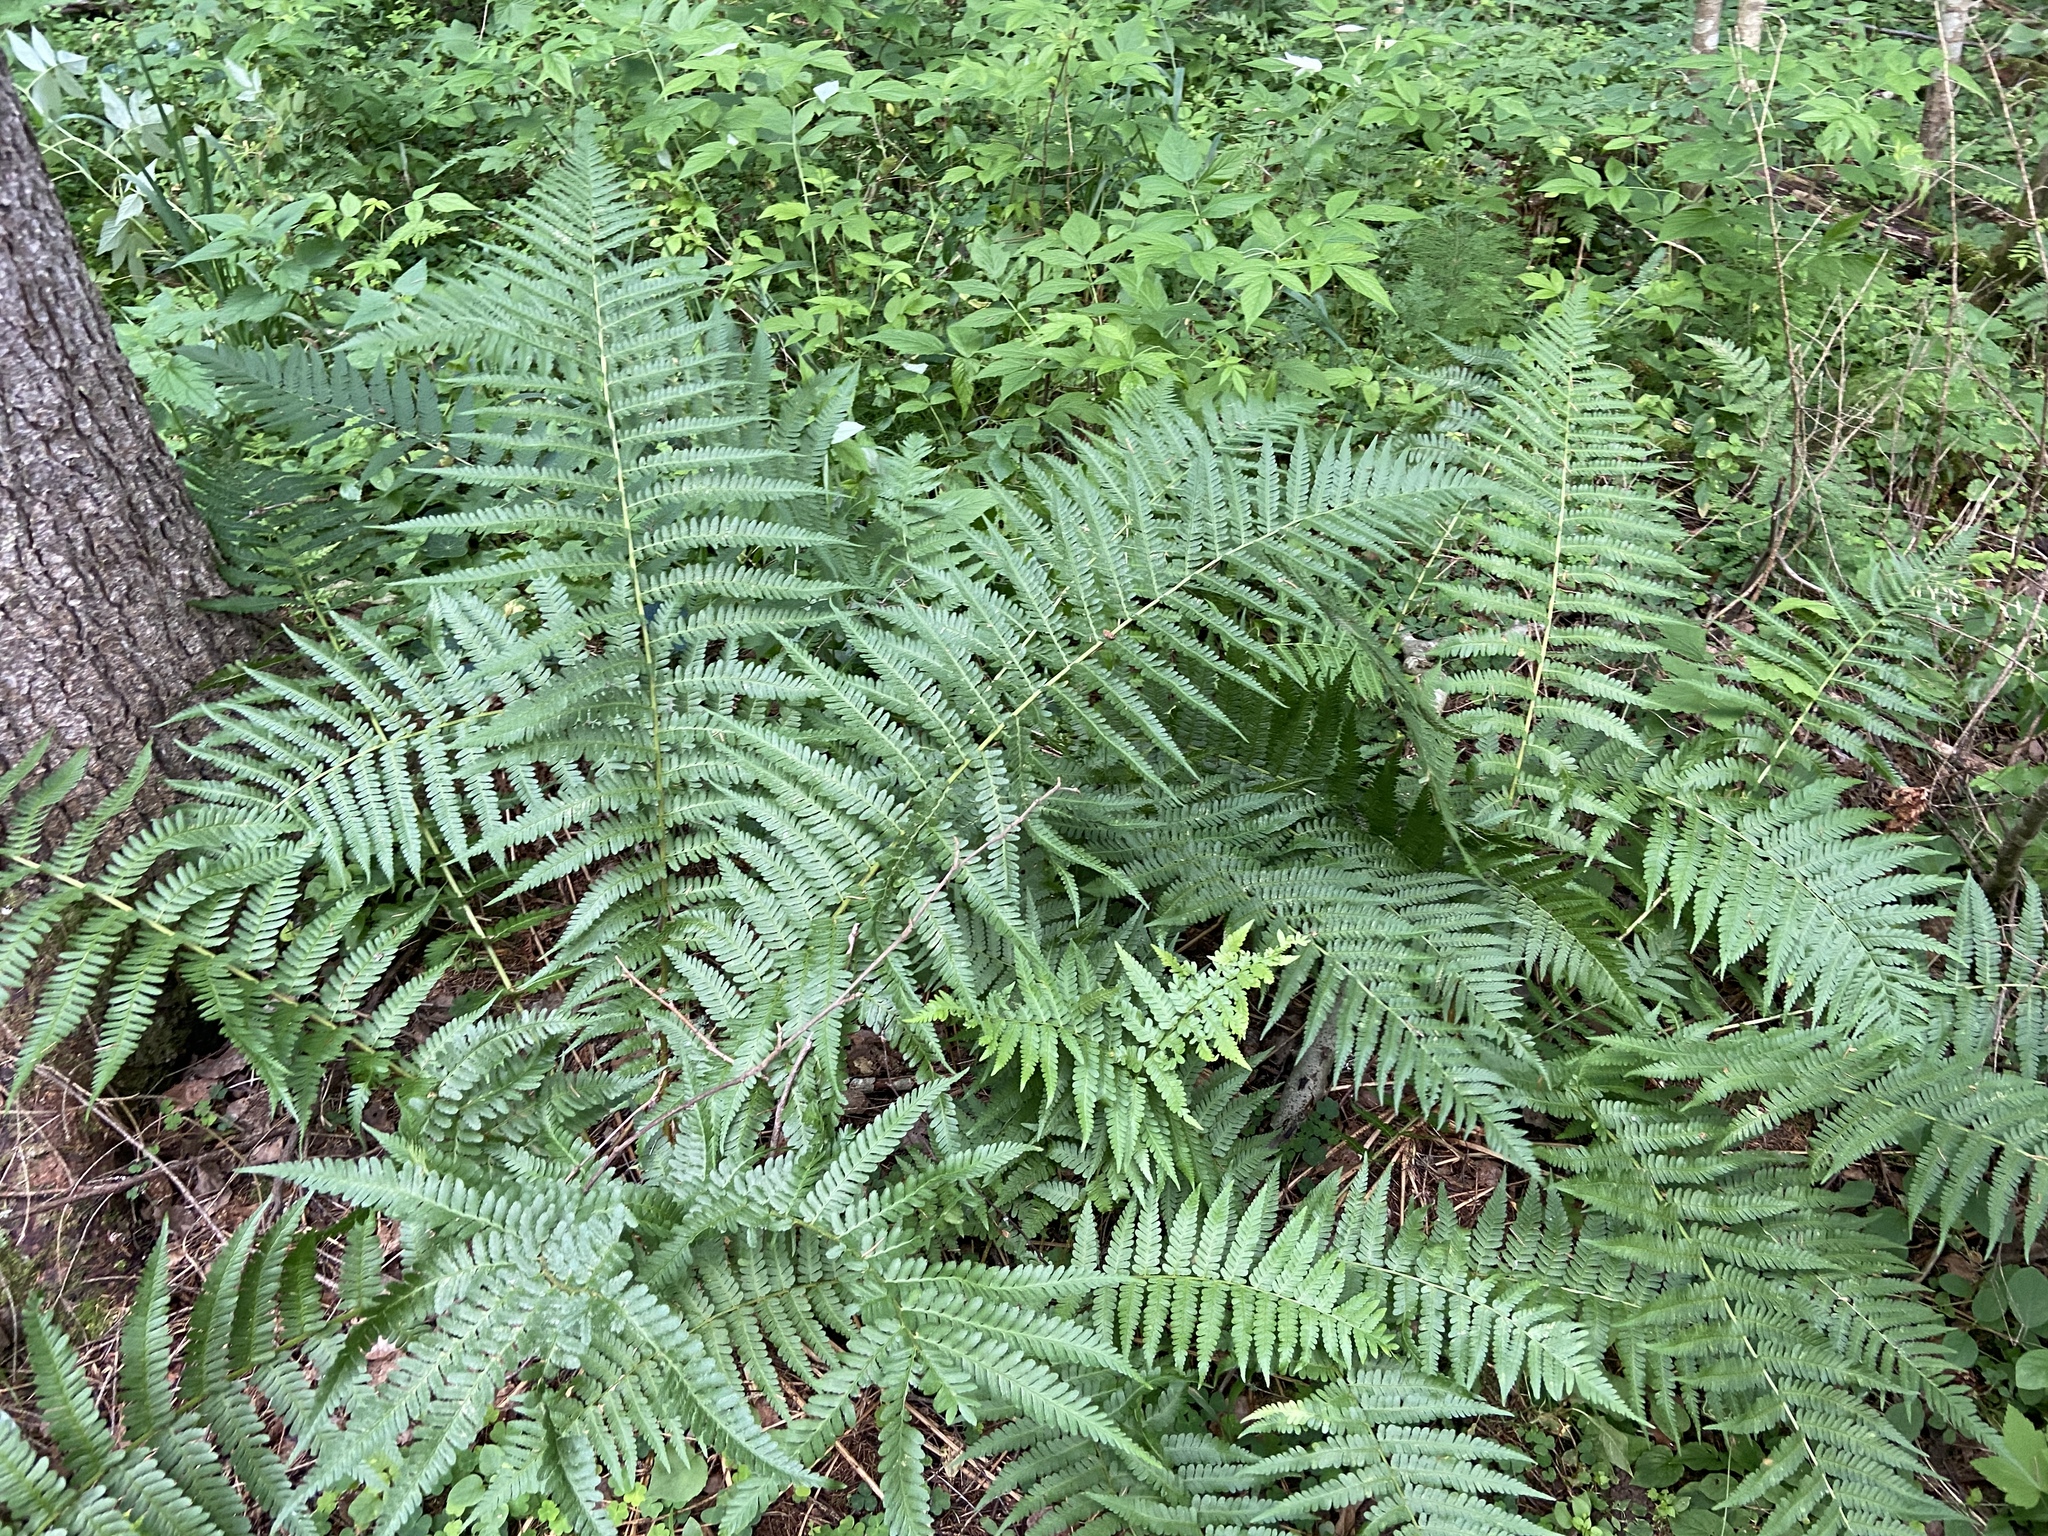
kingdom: Plantae
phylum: Tracheophyta
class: Polypodiopsida
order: Polypodiales
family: Dryopteridaceae
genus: Dryopteris
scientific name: Dryopteris filix-mas
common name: Male fern
